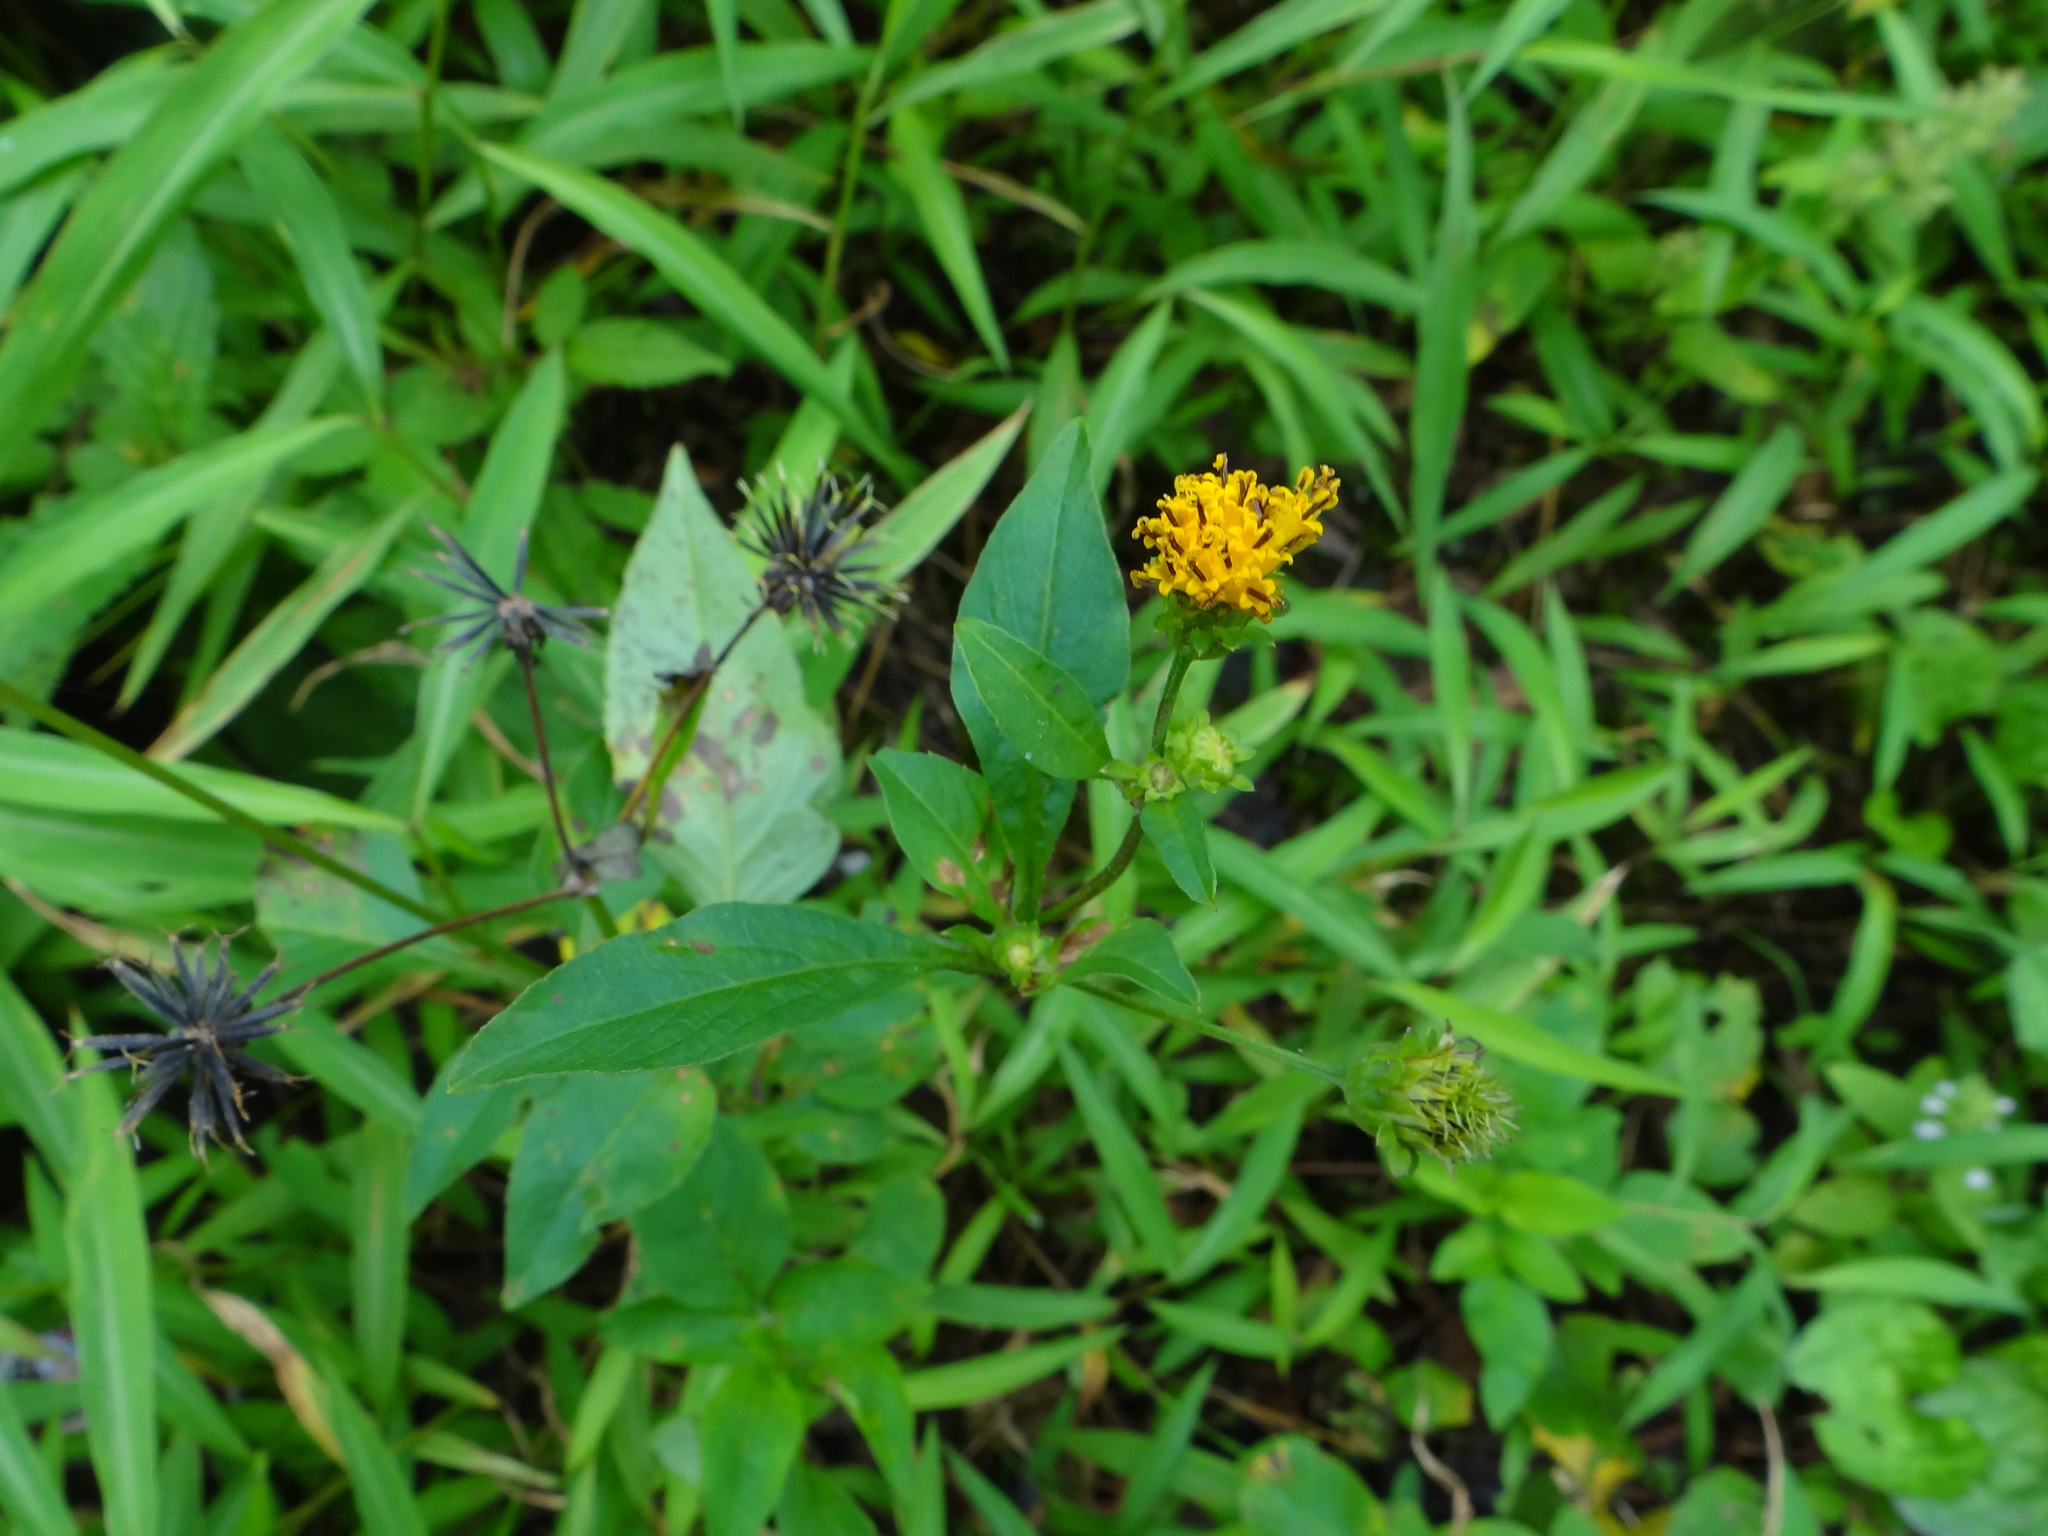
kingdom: Plantae
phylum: Tracheophyta
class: Magnoliopsida
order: Asterales
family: Asteraceae
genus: Bidens
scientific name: Bidens pilosa
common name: Black-jack
